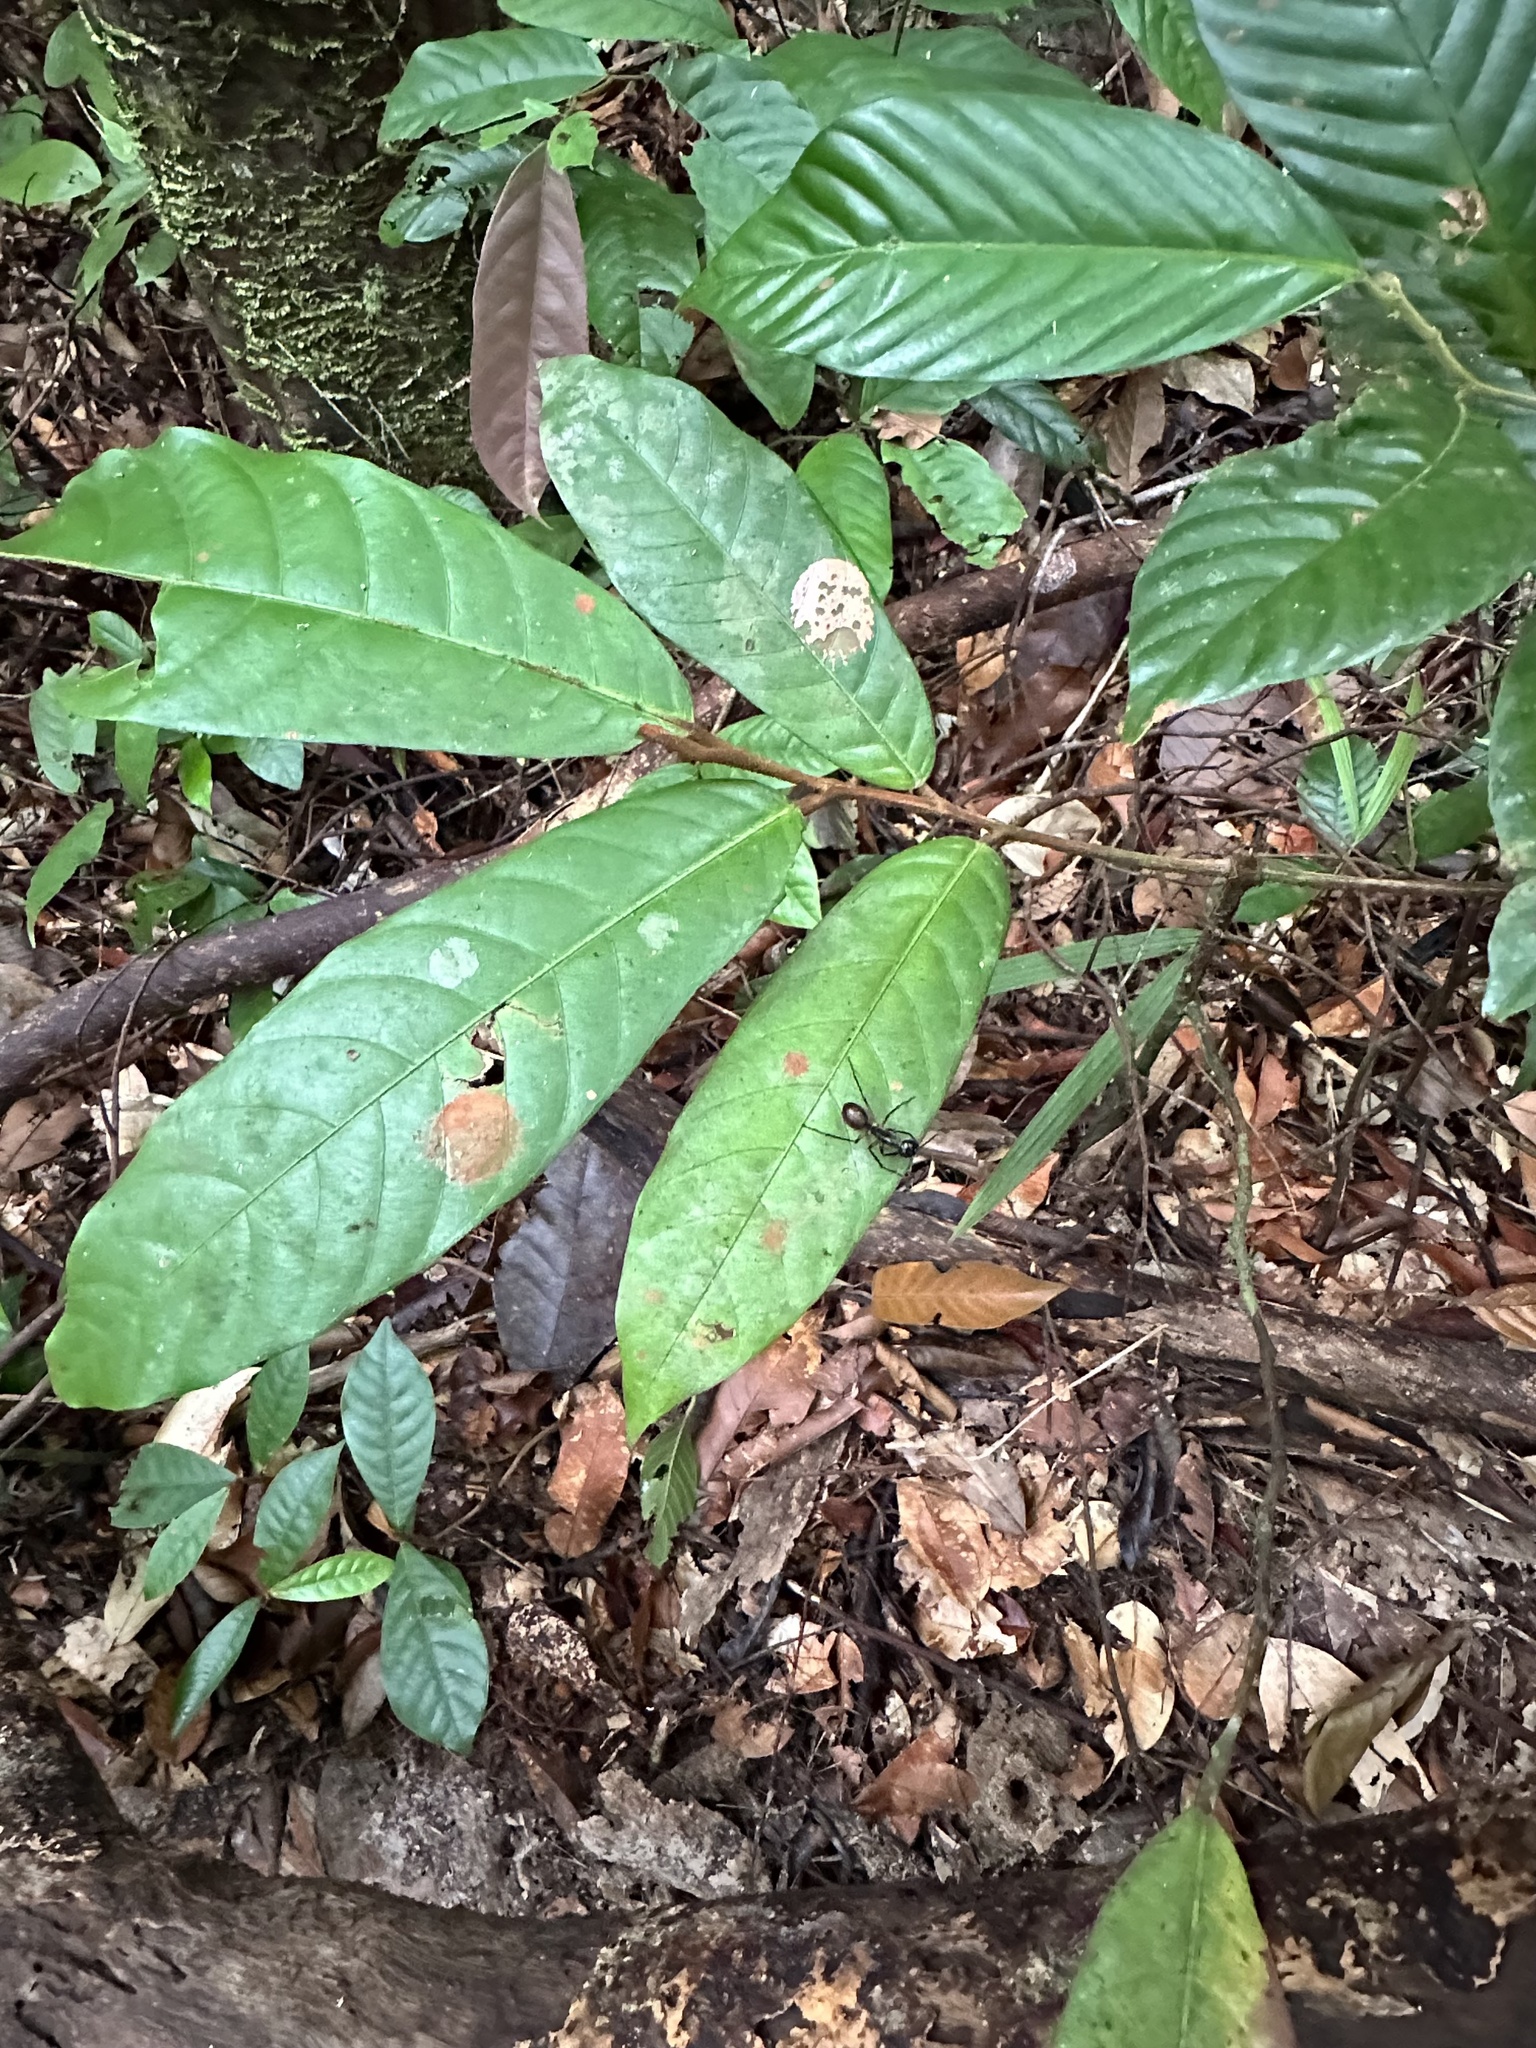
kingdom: Animalia
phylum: Arthropoda
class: Insecta
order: Hymenoptera
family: Formicidae
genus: Dinomyrmex
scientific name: Dinomyrmex
